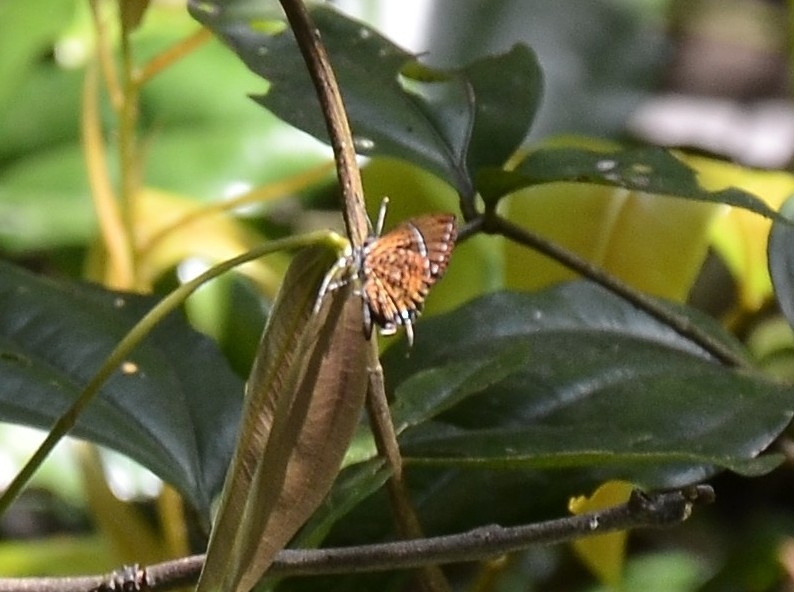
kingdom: Animalia
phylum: Arthropoda
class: Insecta
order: Lepidoptera
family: Lycaenidae
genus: Rathinda
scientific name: Rathinda amor
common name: Monkey puzzle
